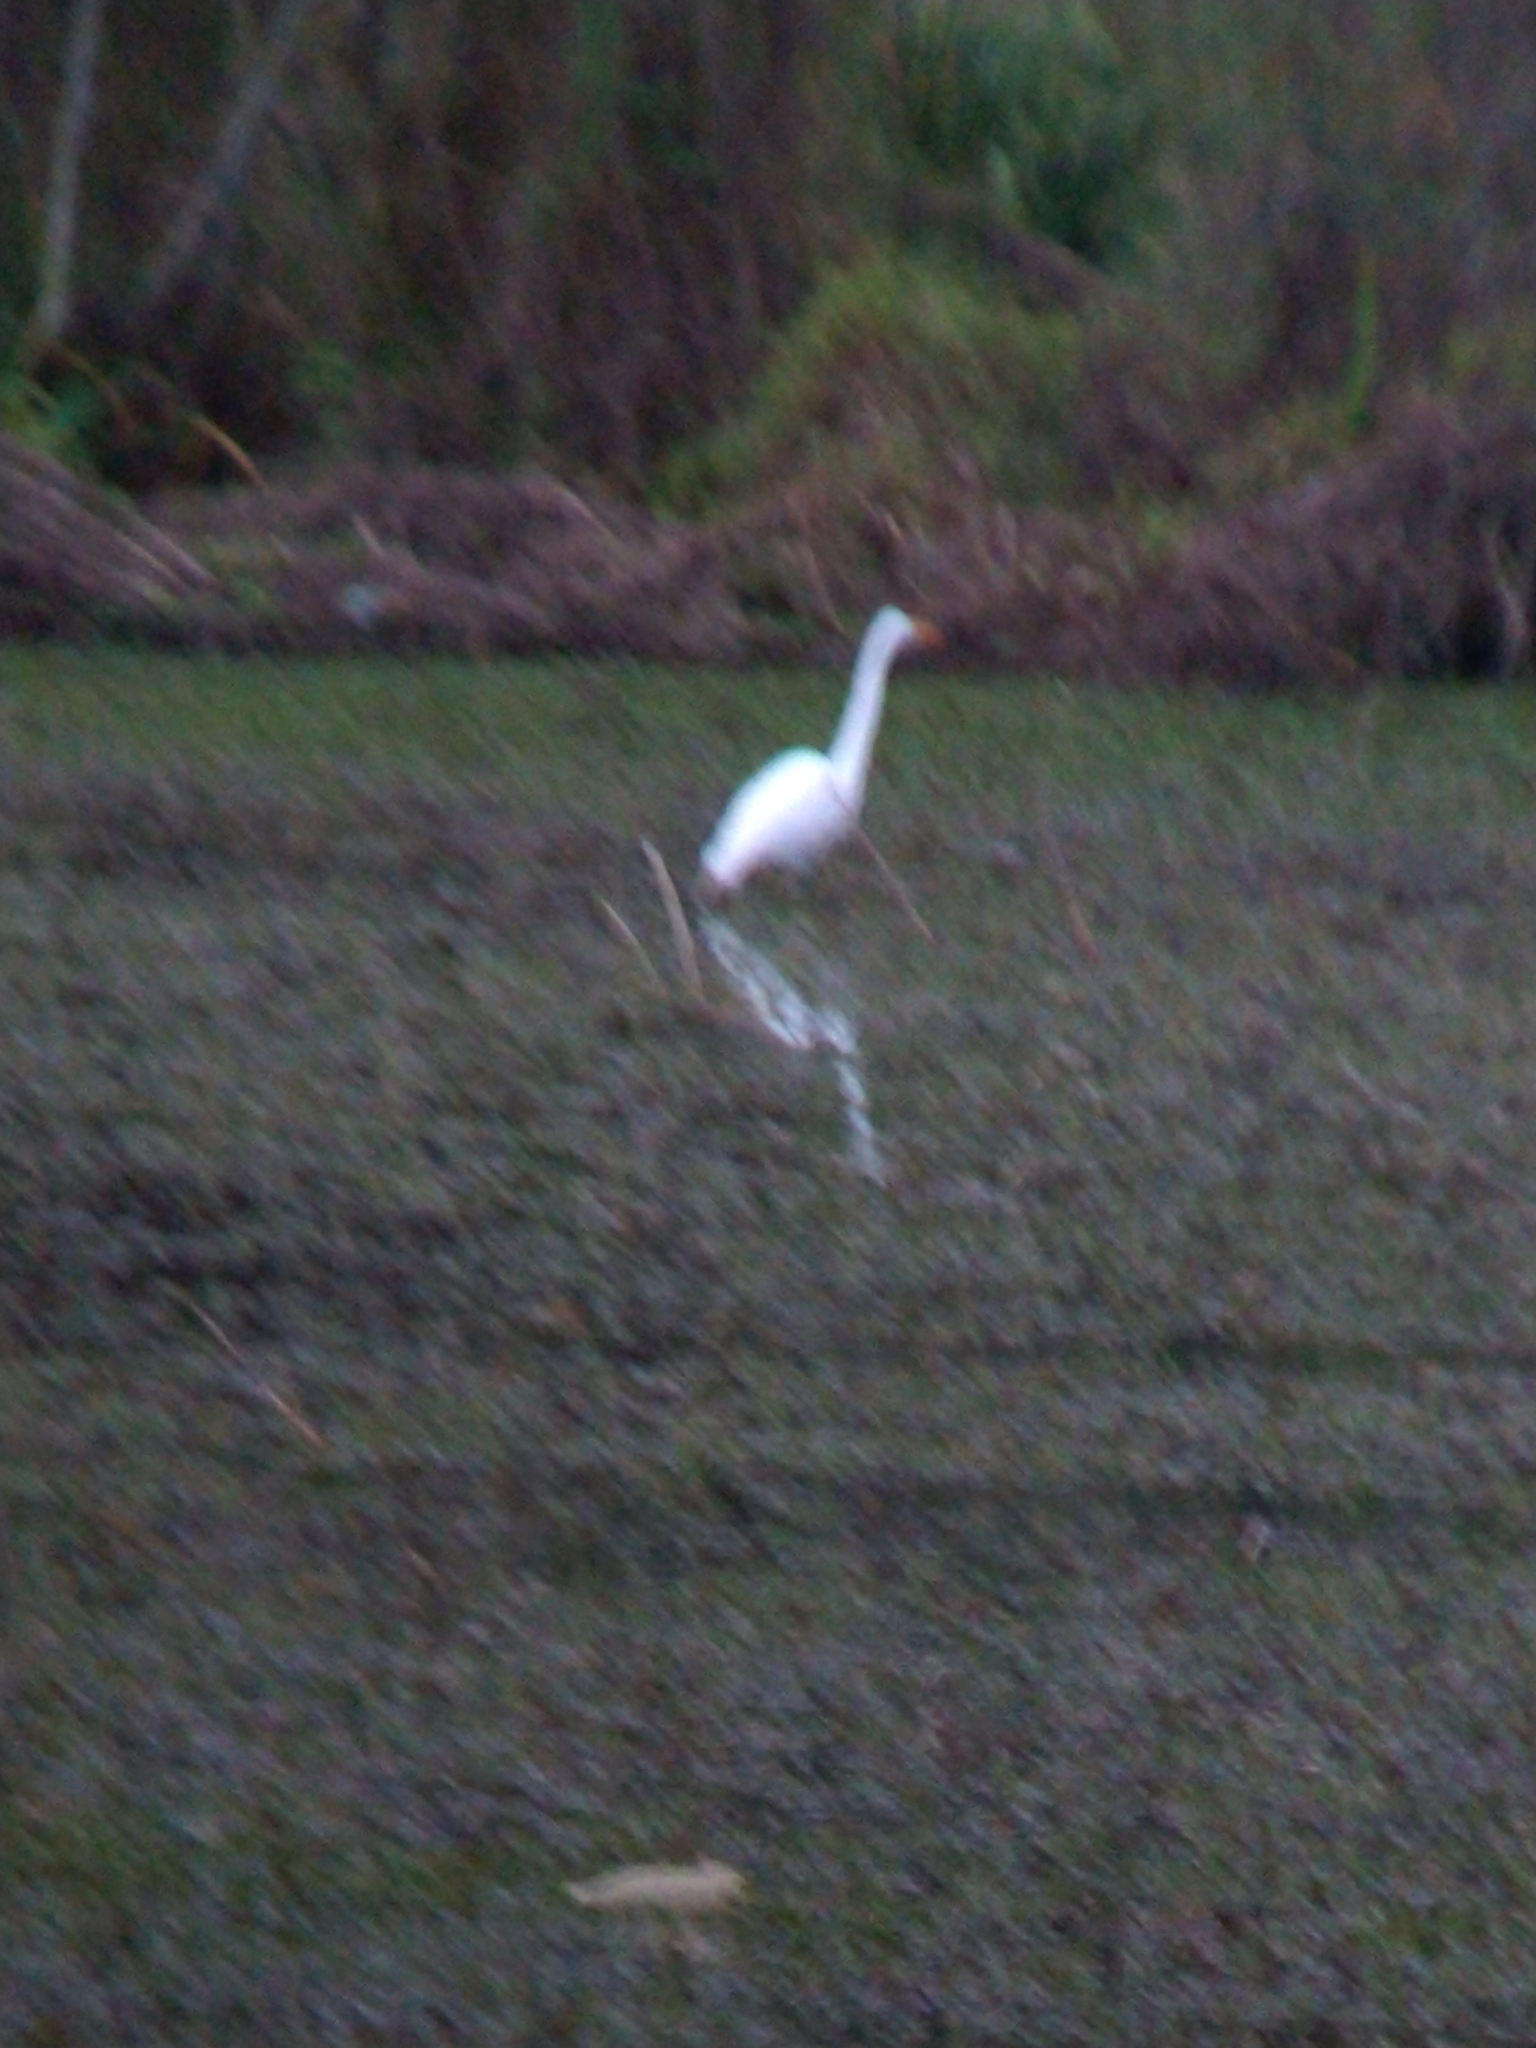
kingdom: Animalia
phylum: Chordata
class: Aves
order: Pelecaniformes
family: Ardeidae
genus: Ardea
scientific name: Ardea alba
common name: Great egret
